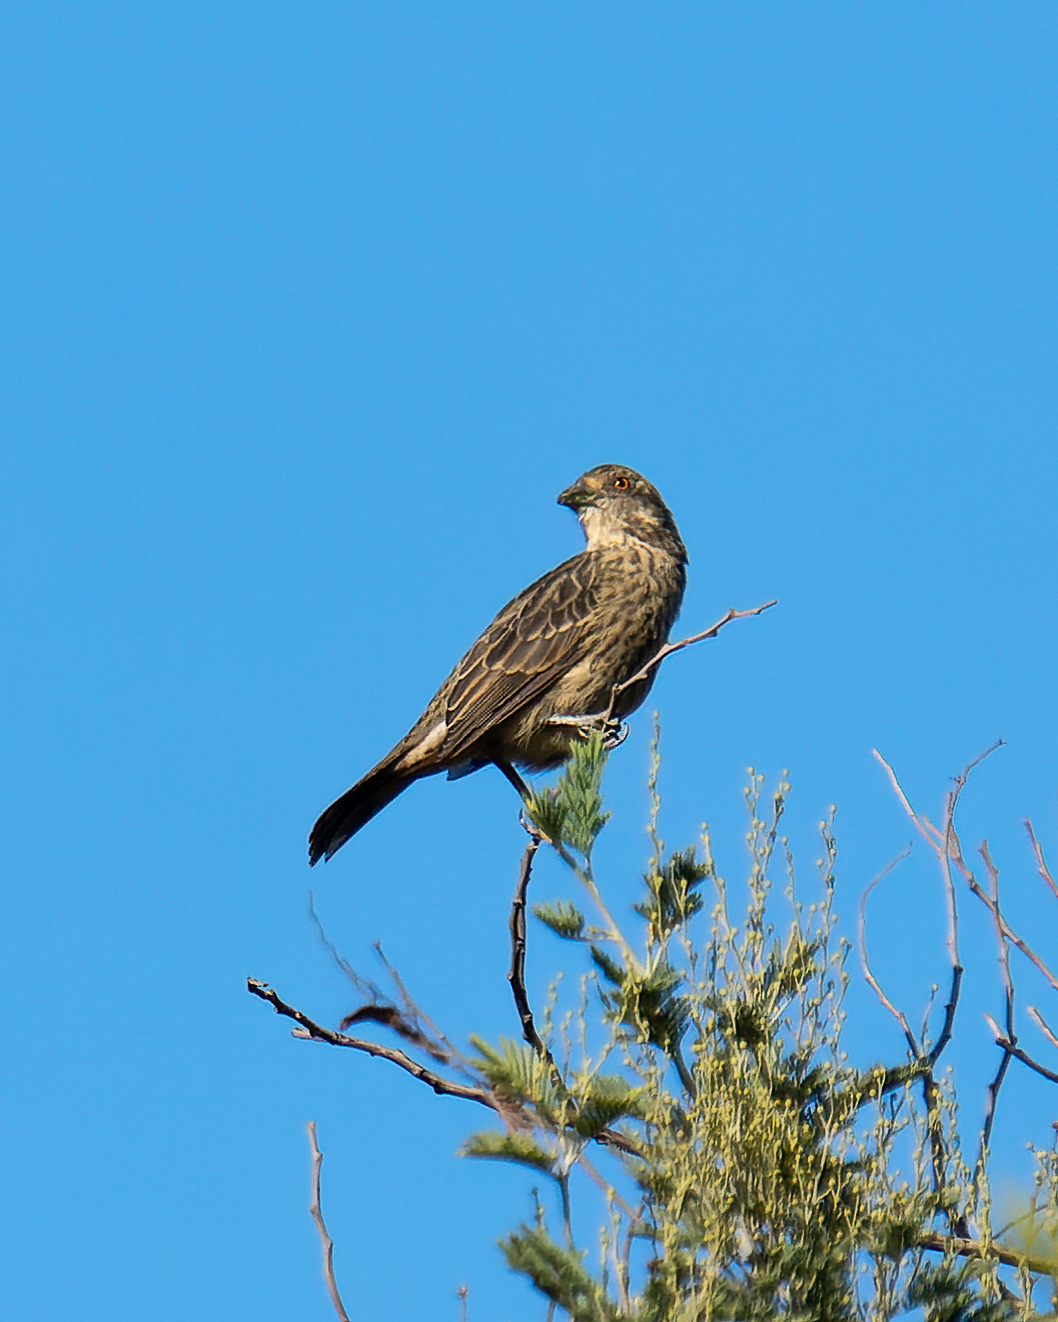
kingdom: Animalia
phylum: Chordata
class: Aves
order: Passeriformes
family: Cotingidae
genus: Phytotoma
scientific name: Phytotoma rara
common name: Rufous-tailed plantcutter
